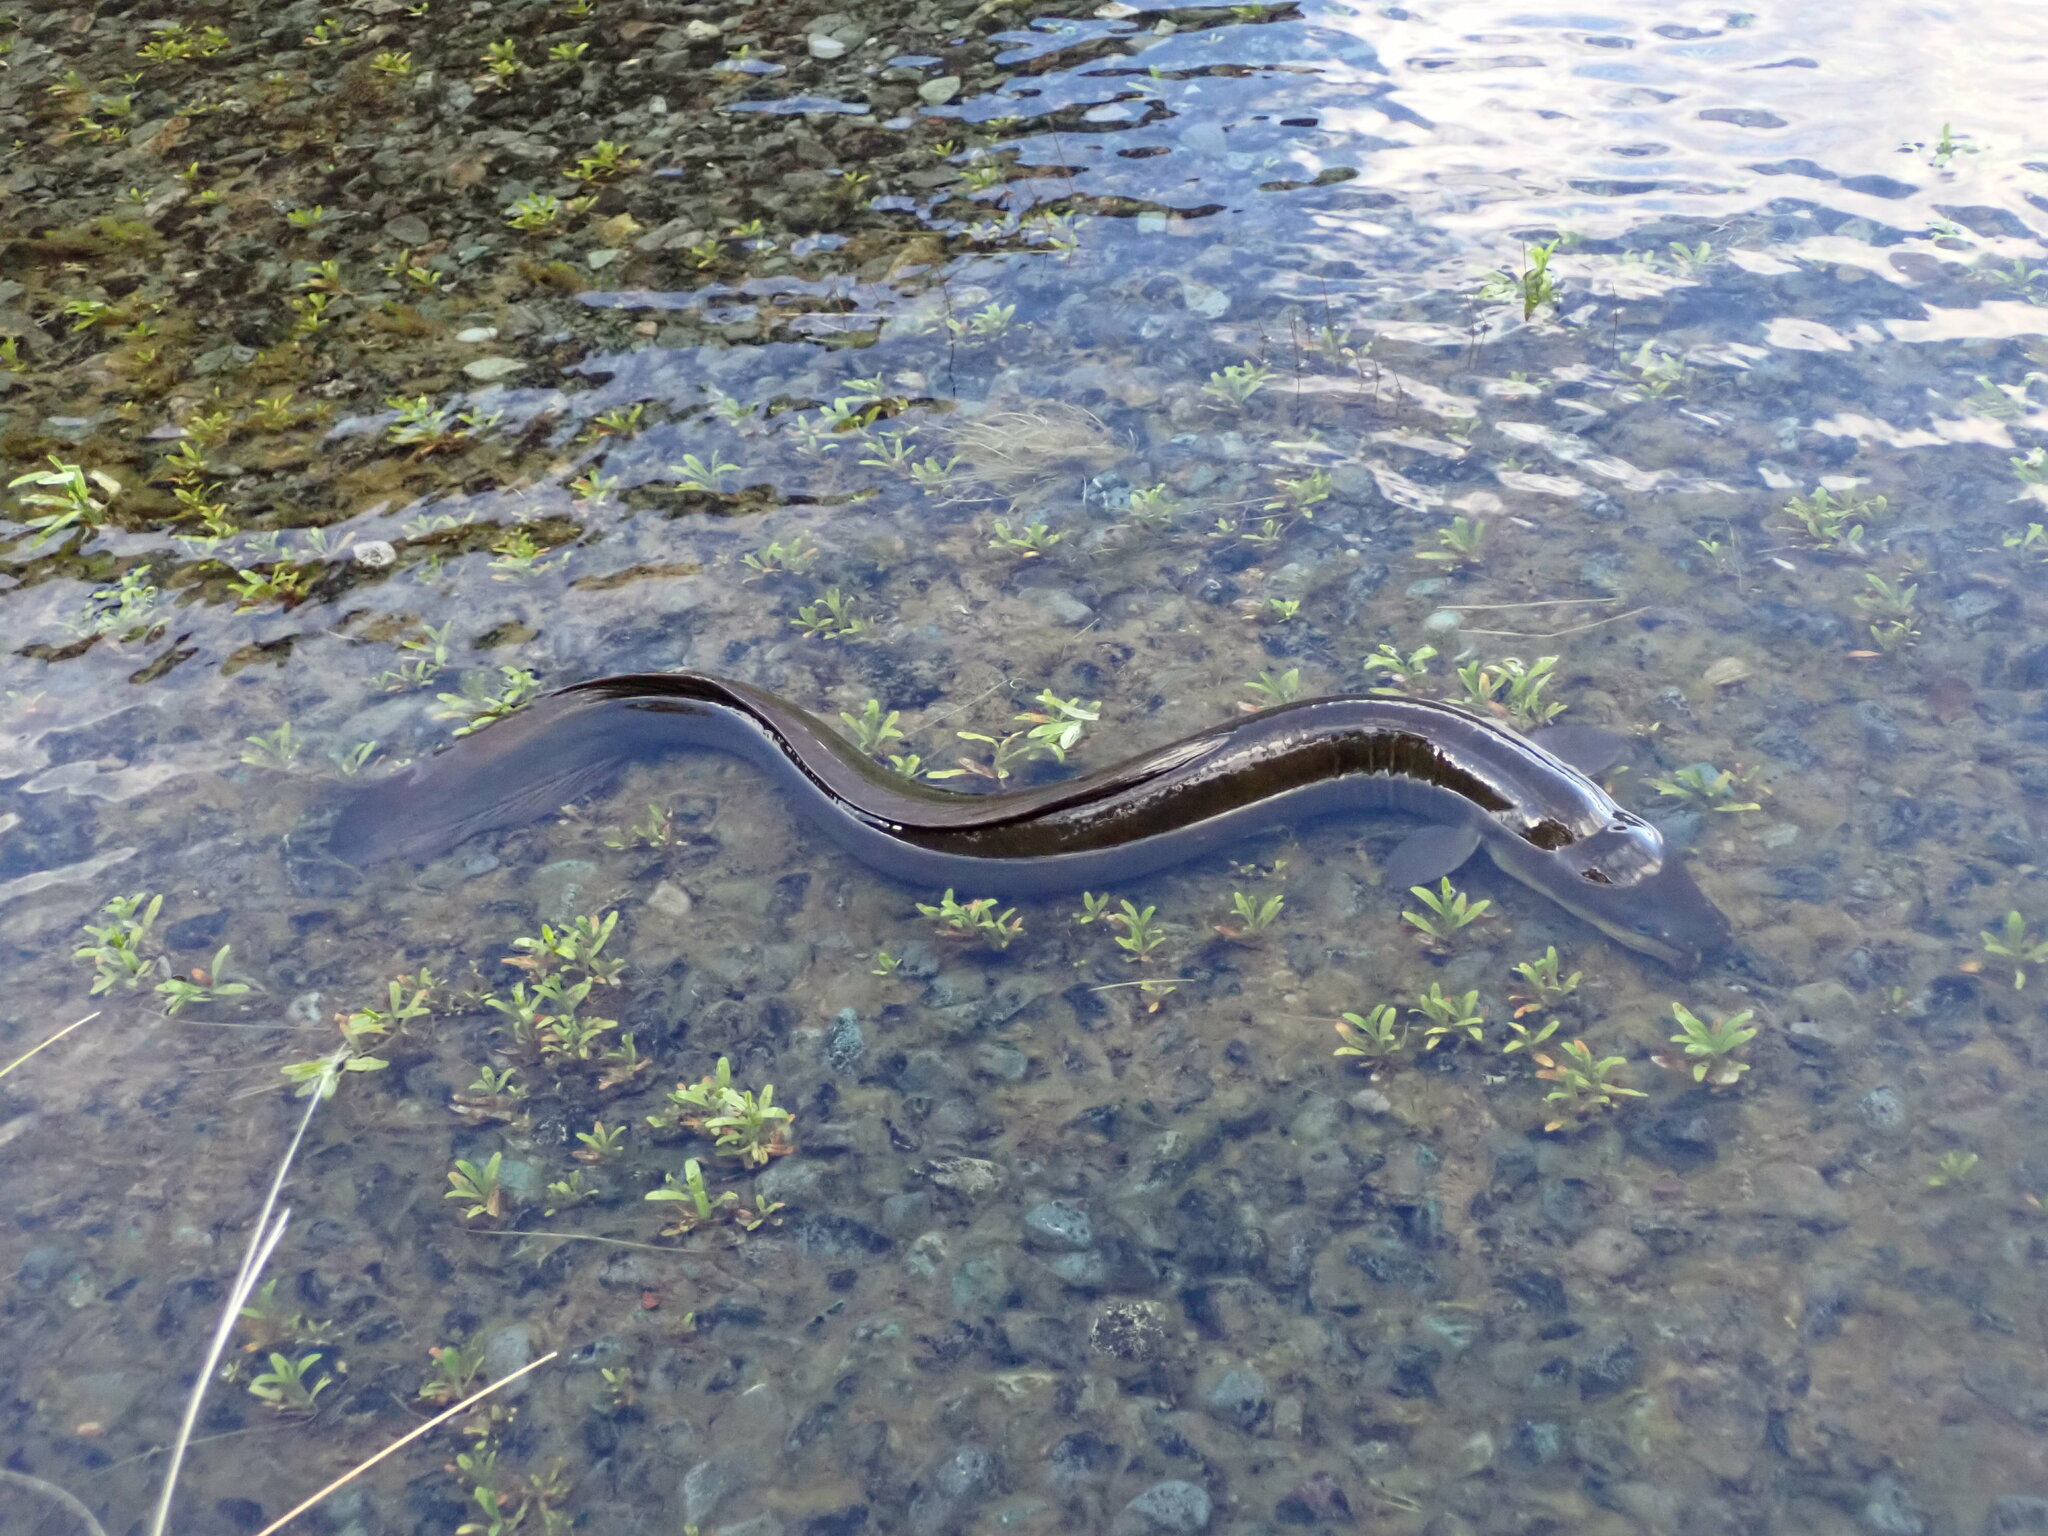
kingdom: Animalia
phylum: Chordata
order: Anguilliformes
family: Anguillidae
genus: Anguilla
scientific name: Anguilla dieffenbachii
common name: New zealand longfin eel
